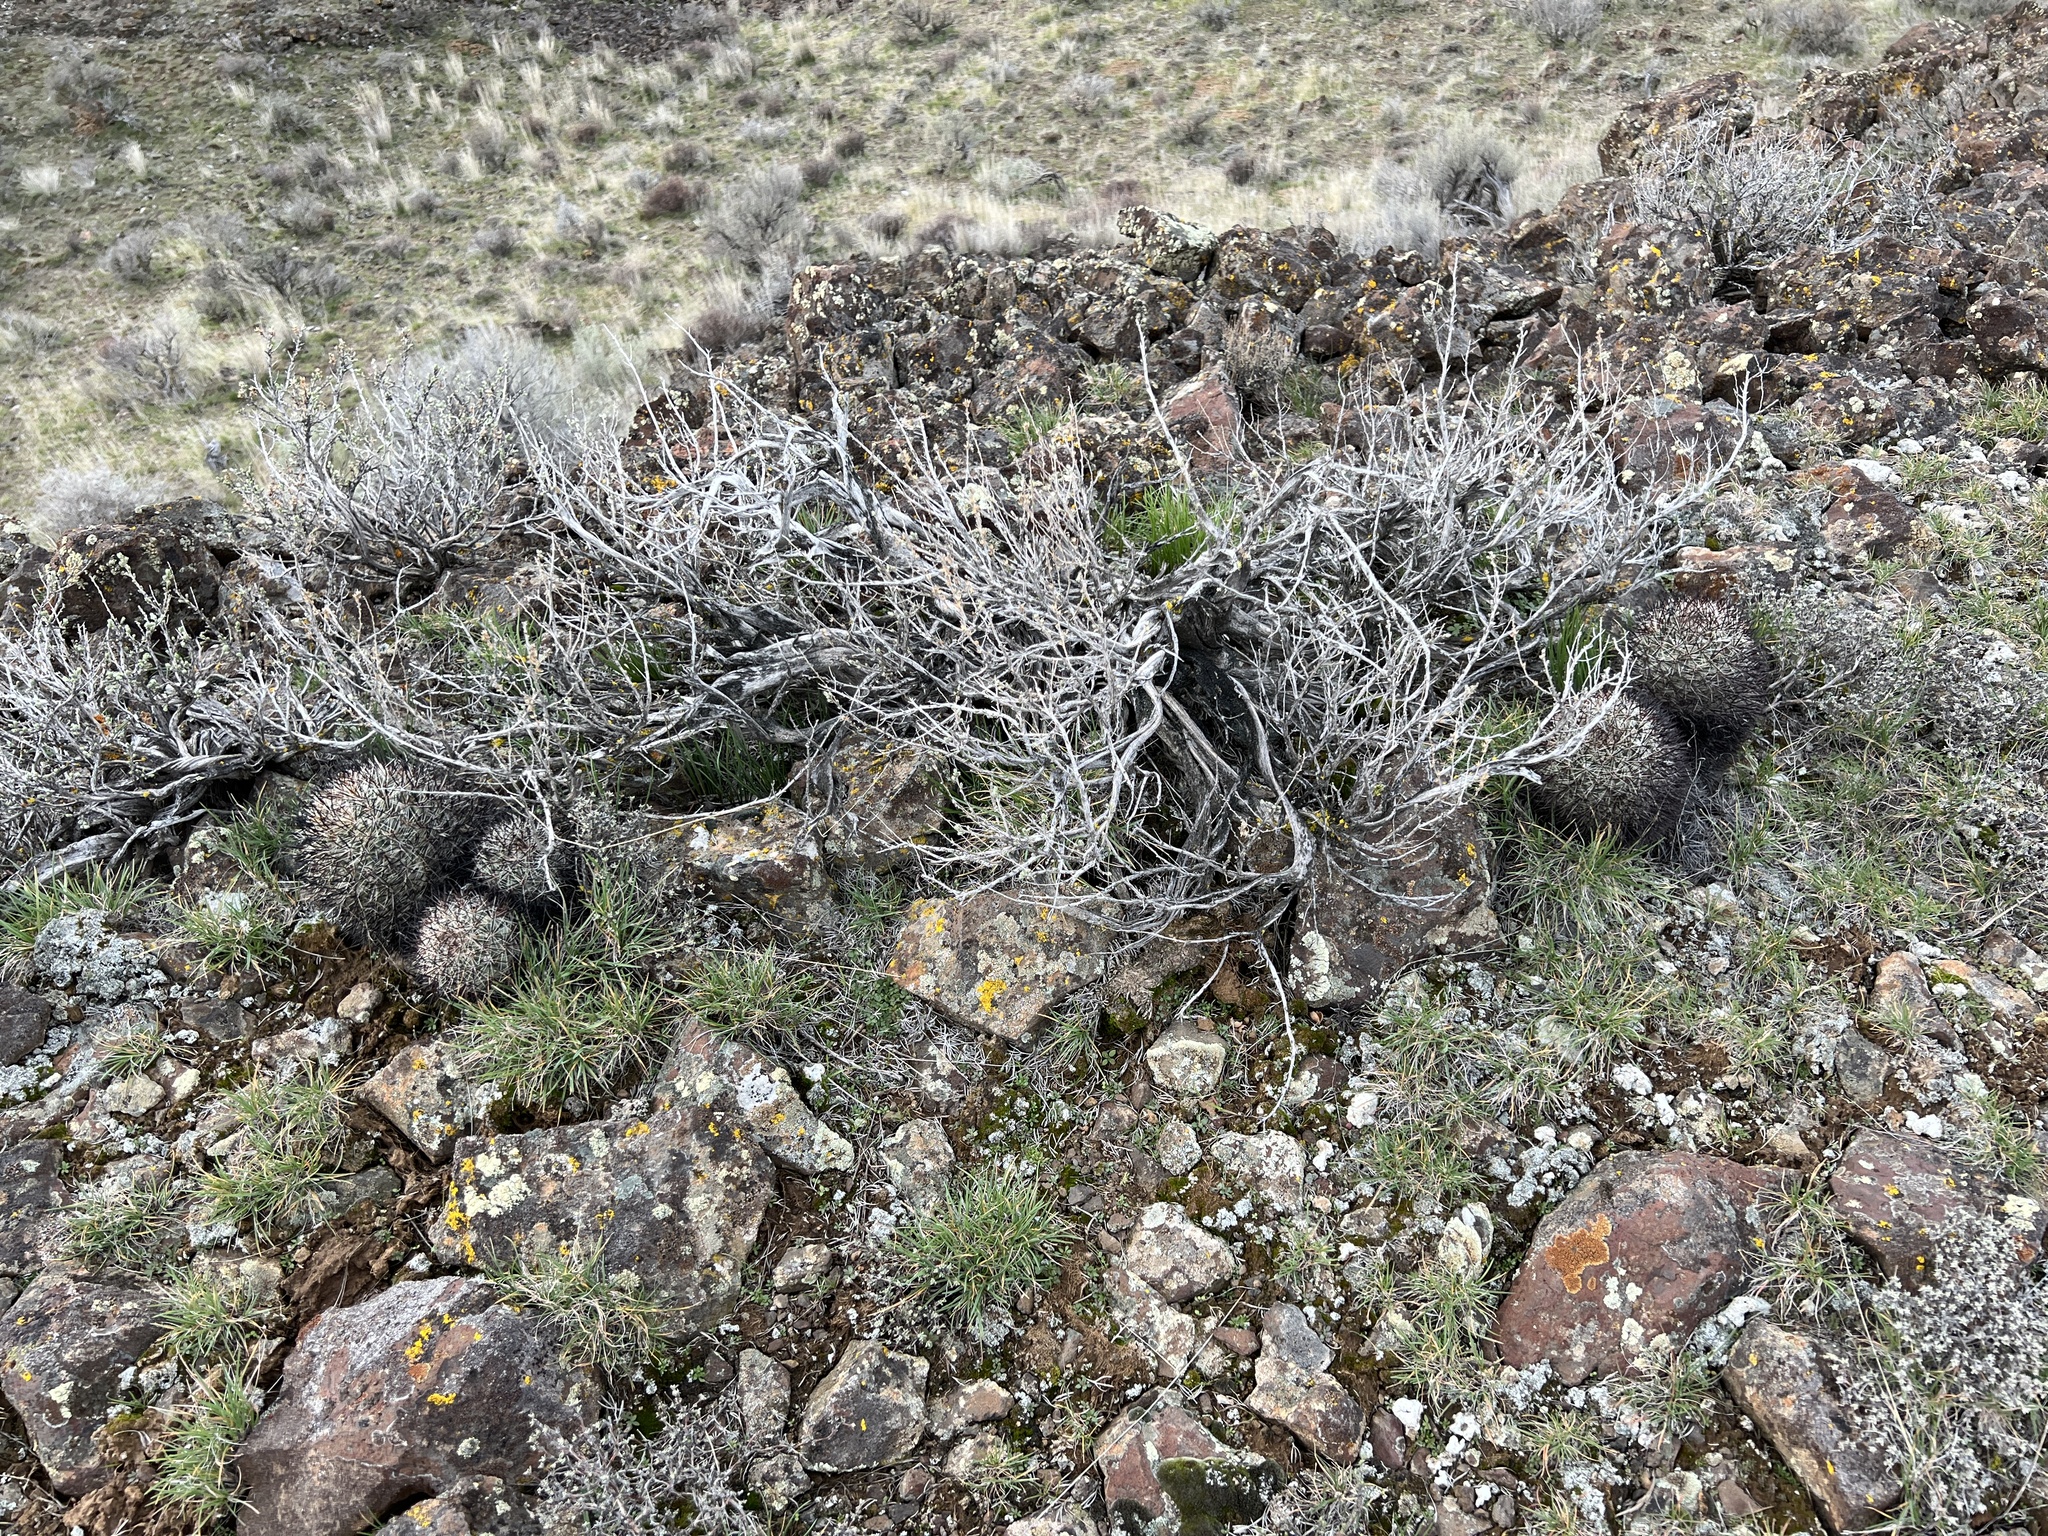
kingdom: Plantae
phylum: Tracheophyta
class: Magnoliopsida
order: Caryophyllales
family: Cactaceae
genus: Pediocactus
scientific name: Pediocactus nigrispinus
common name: Simpson's hedgehog cactus
